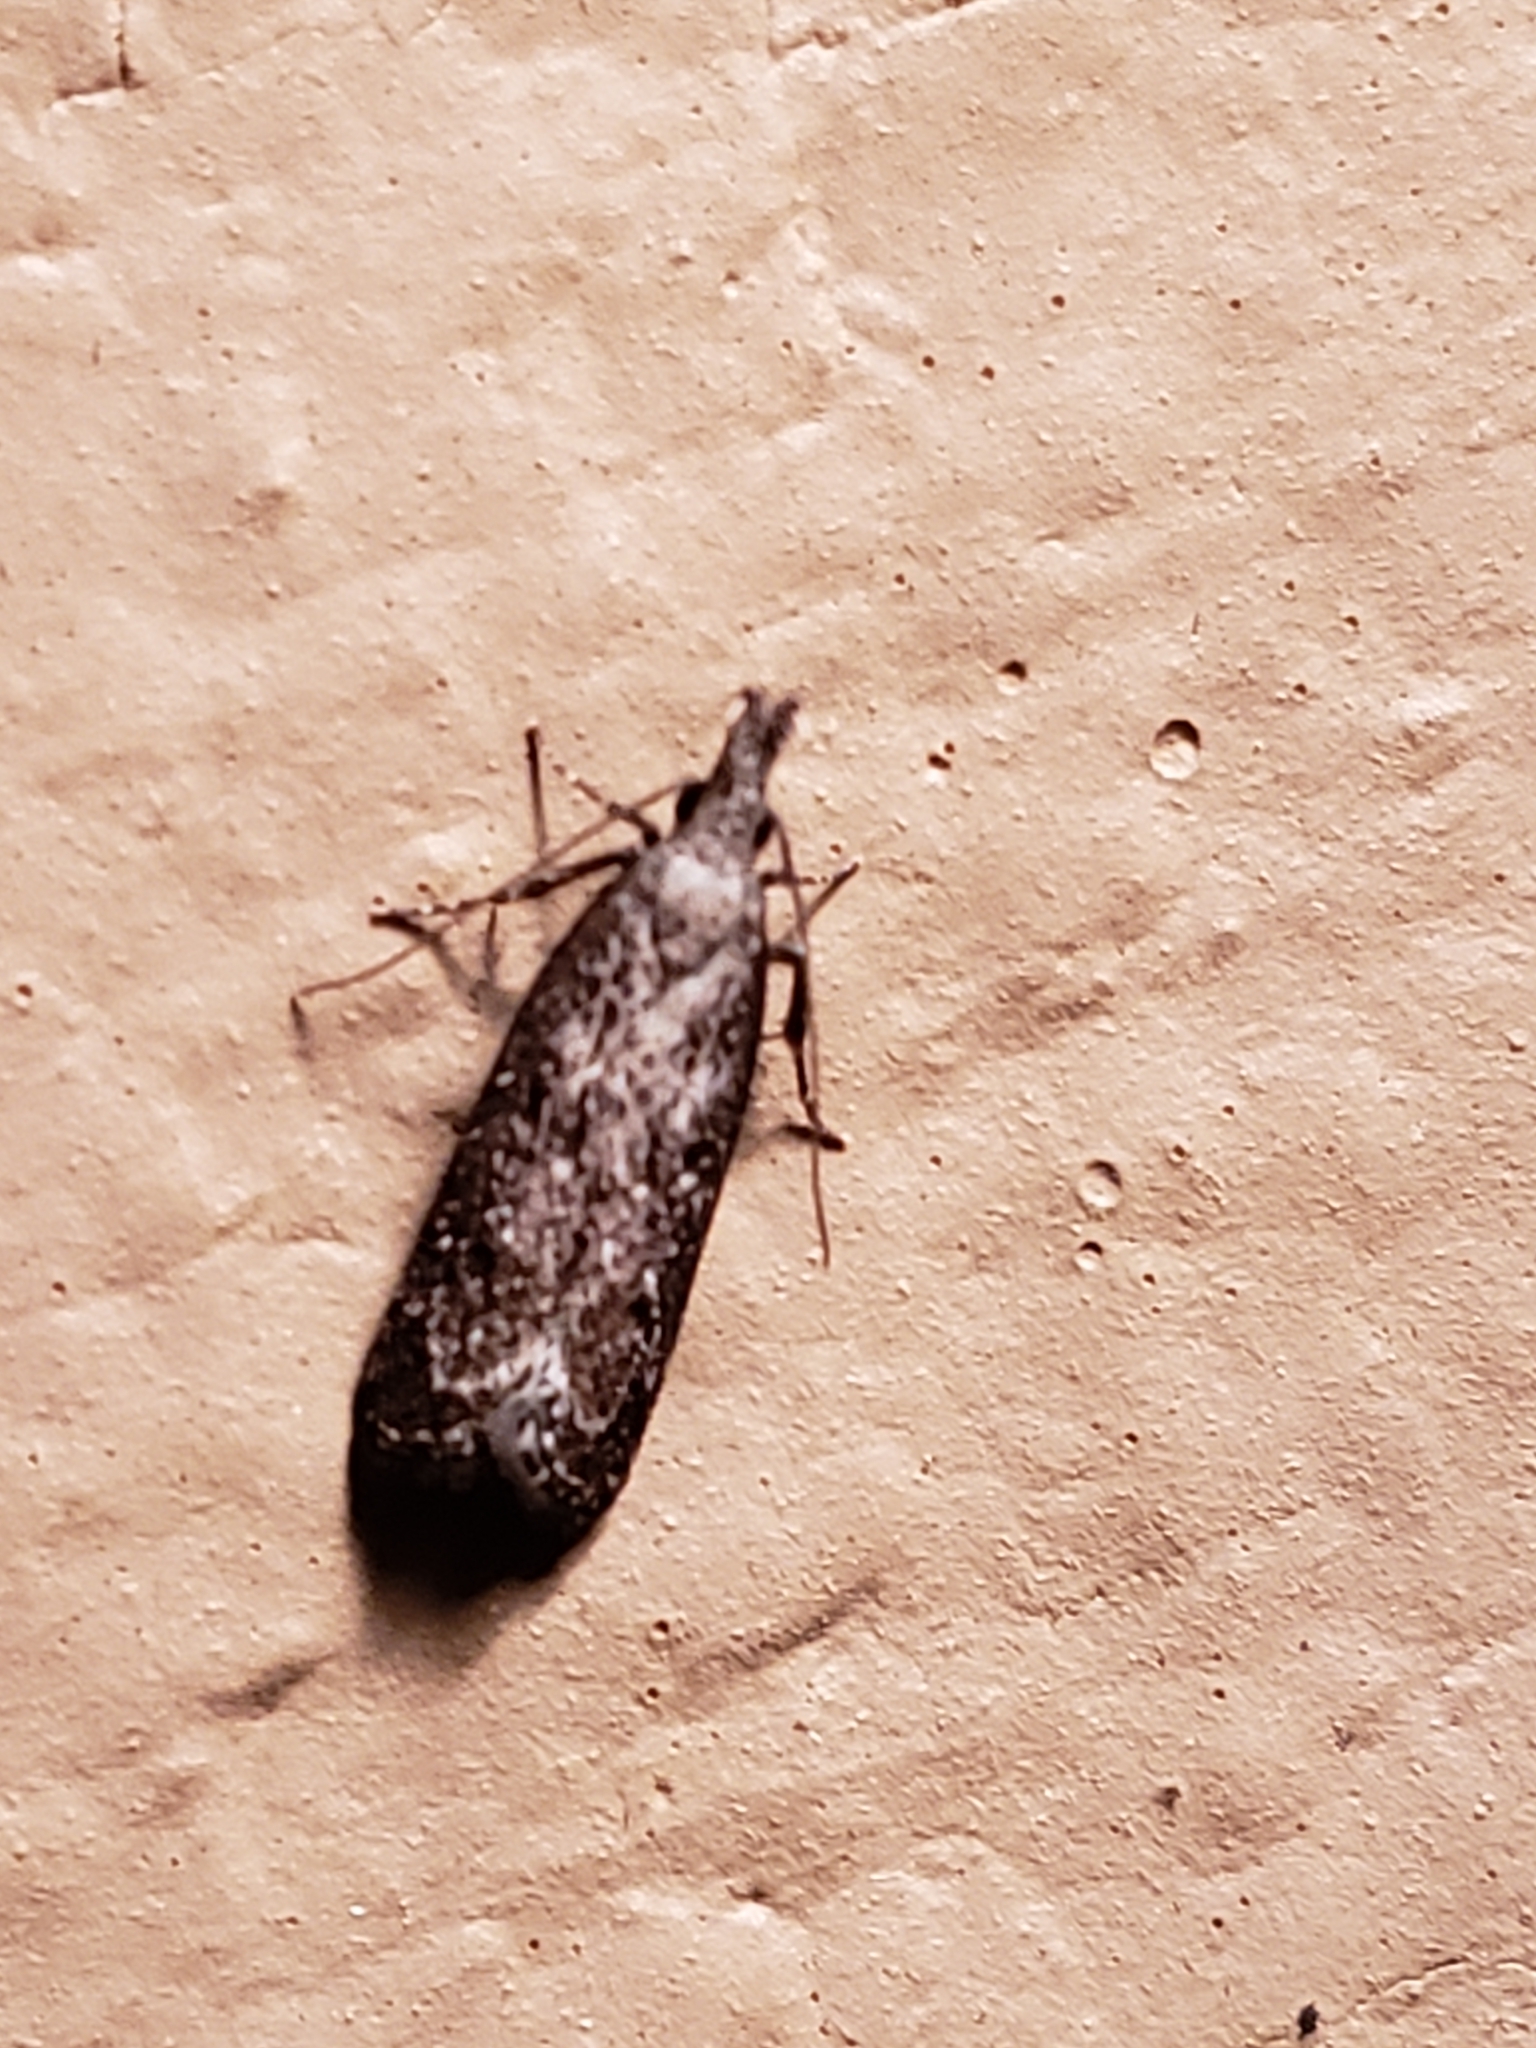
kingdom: Animalia
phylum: Arthropoda
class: Insecta
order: Lepidoptera
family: Gelechiidae
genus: Dichomeris
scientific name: Dichomeris inversella
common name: Inverse dichomeris moth
